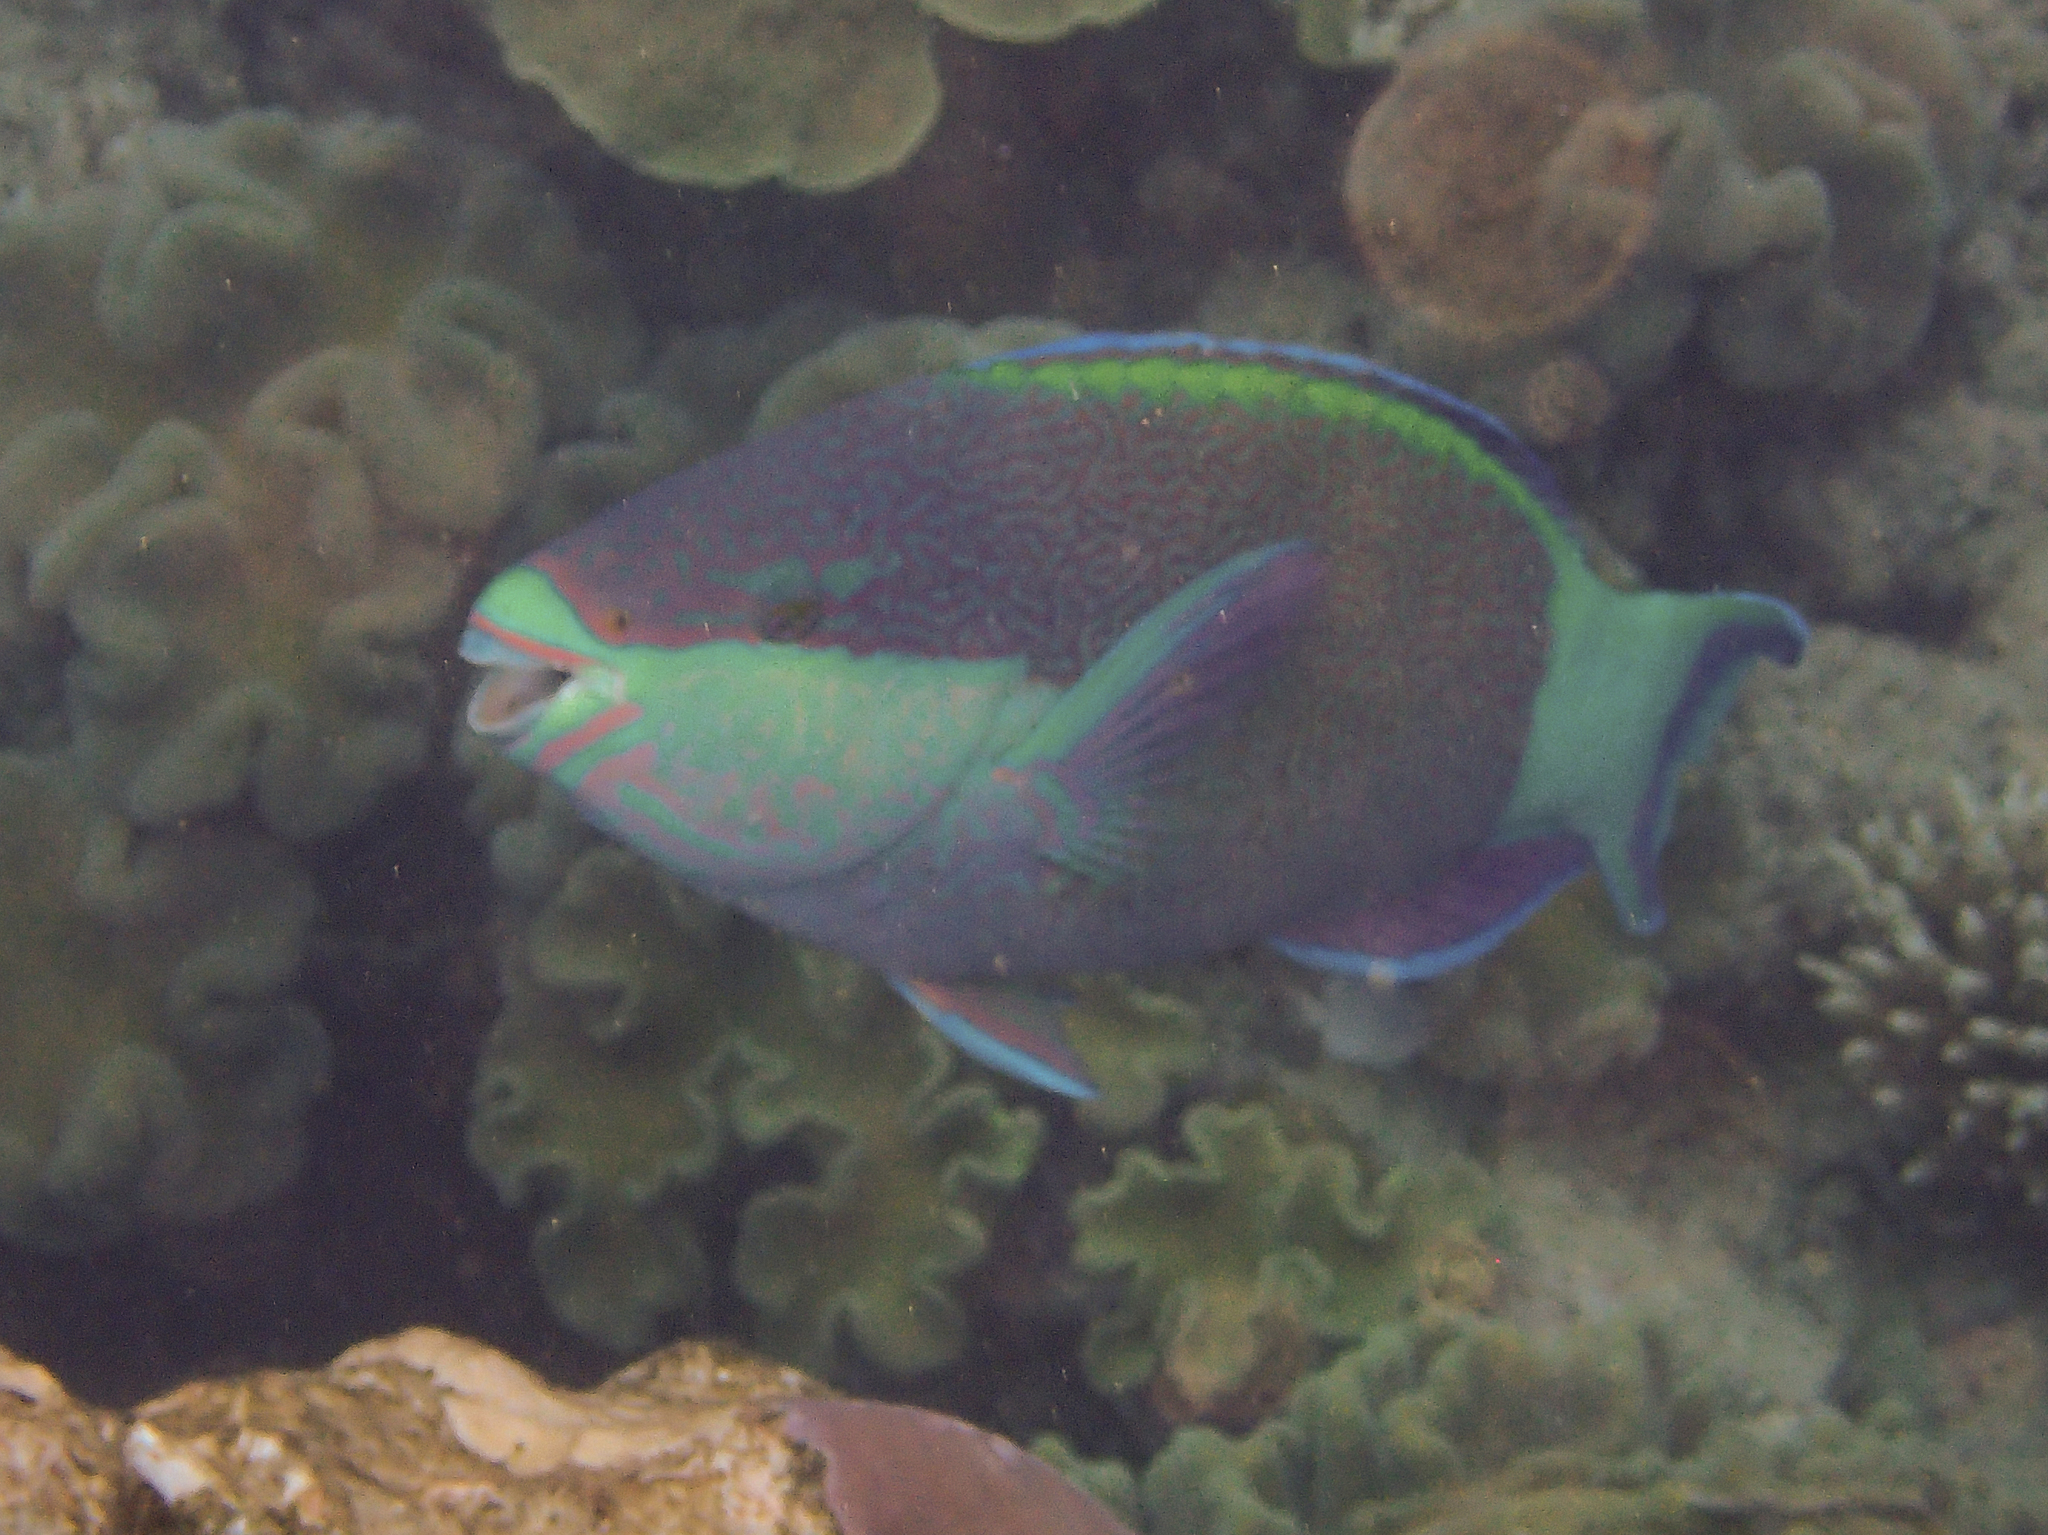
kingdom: Animalia
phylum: Chordata
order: Perciformes
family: Scaridae
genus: Scarus
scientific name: Scarus frenatus
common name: Bridled parrotfish
